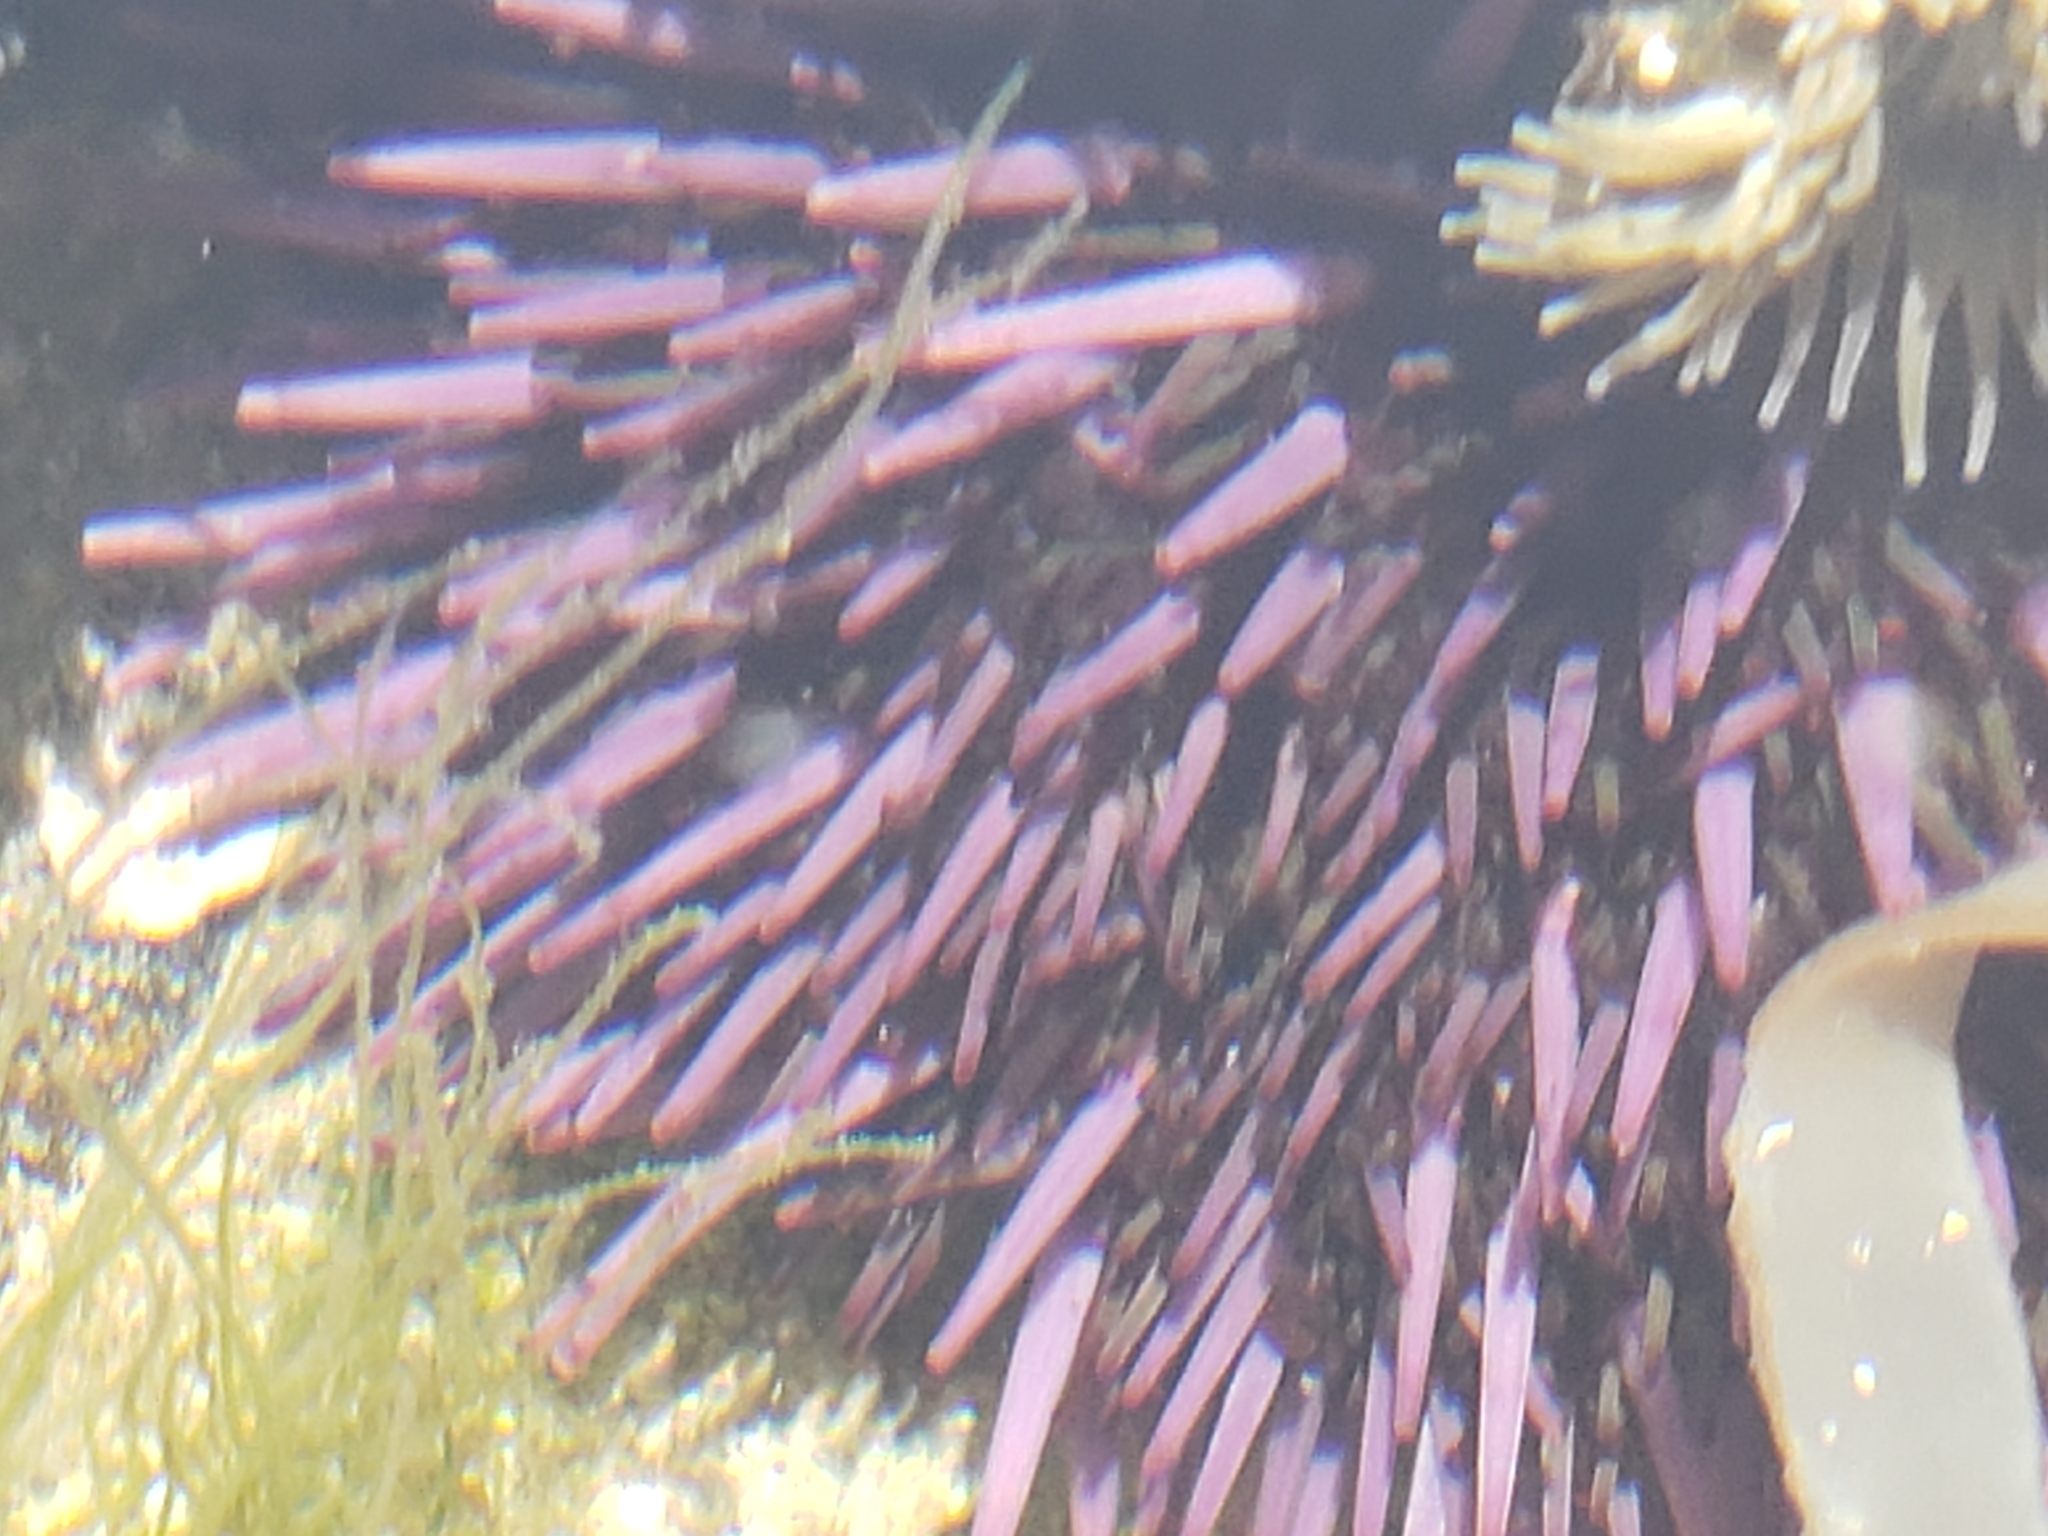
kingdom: Animalia
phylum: Echinodermata
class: Echinoidea
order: Camarodonta
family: Strongylocentrotidae
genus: Strongylocentrotus
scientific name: Strongylocentrotus purpuratus
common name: Purple sea urchin
